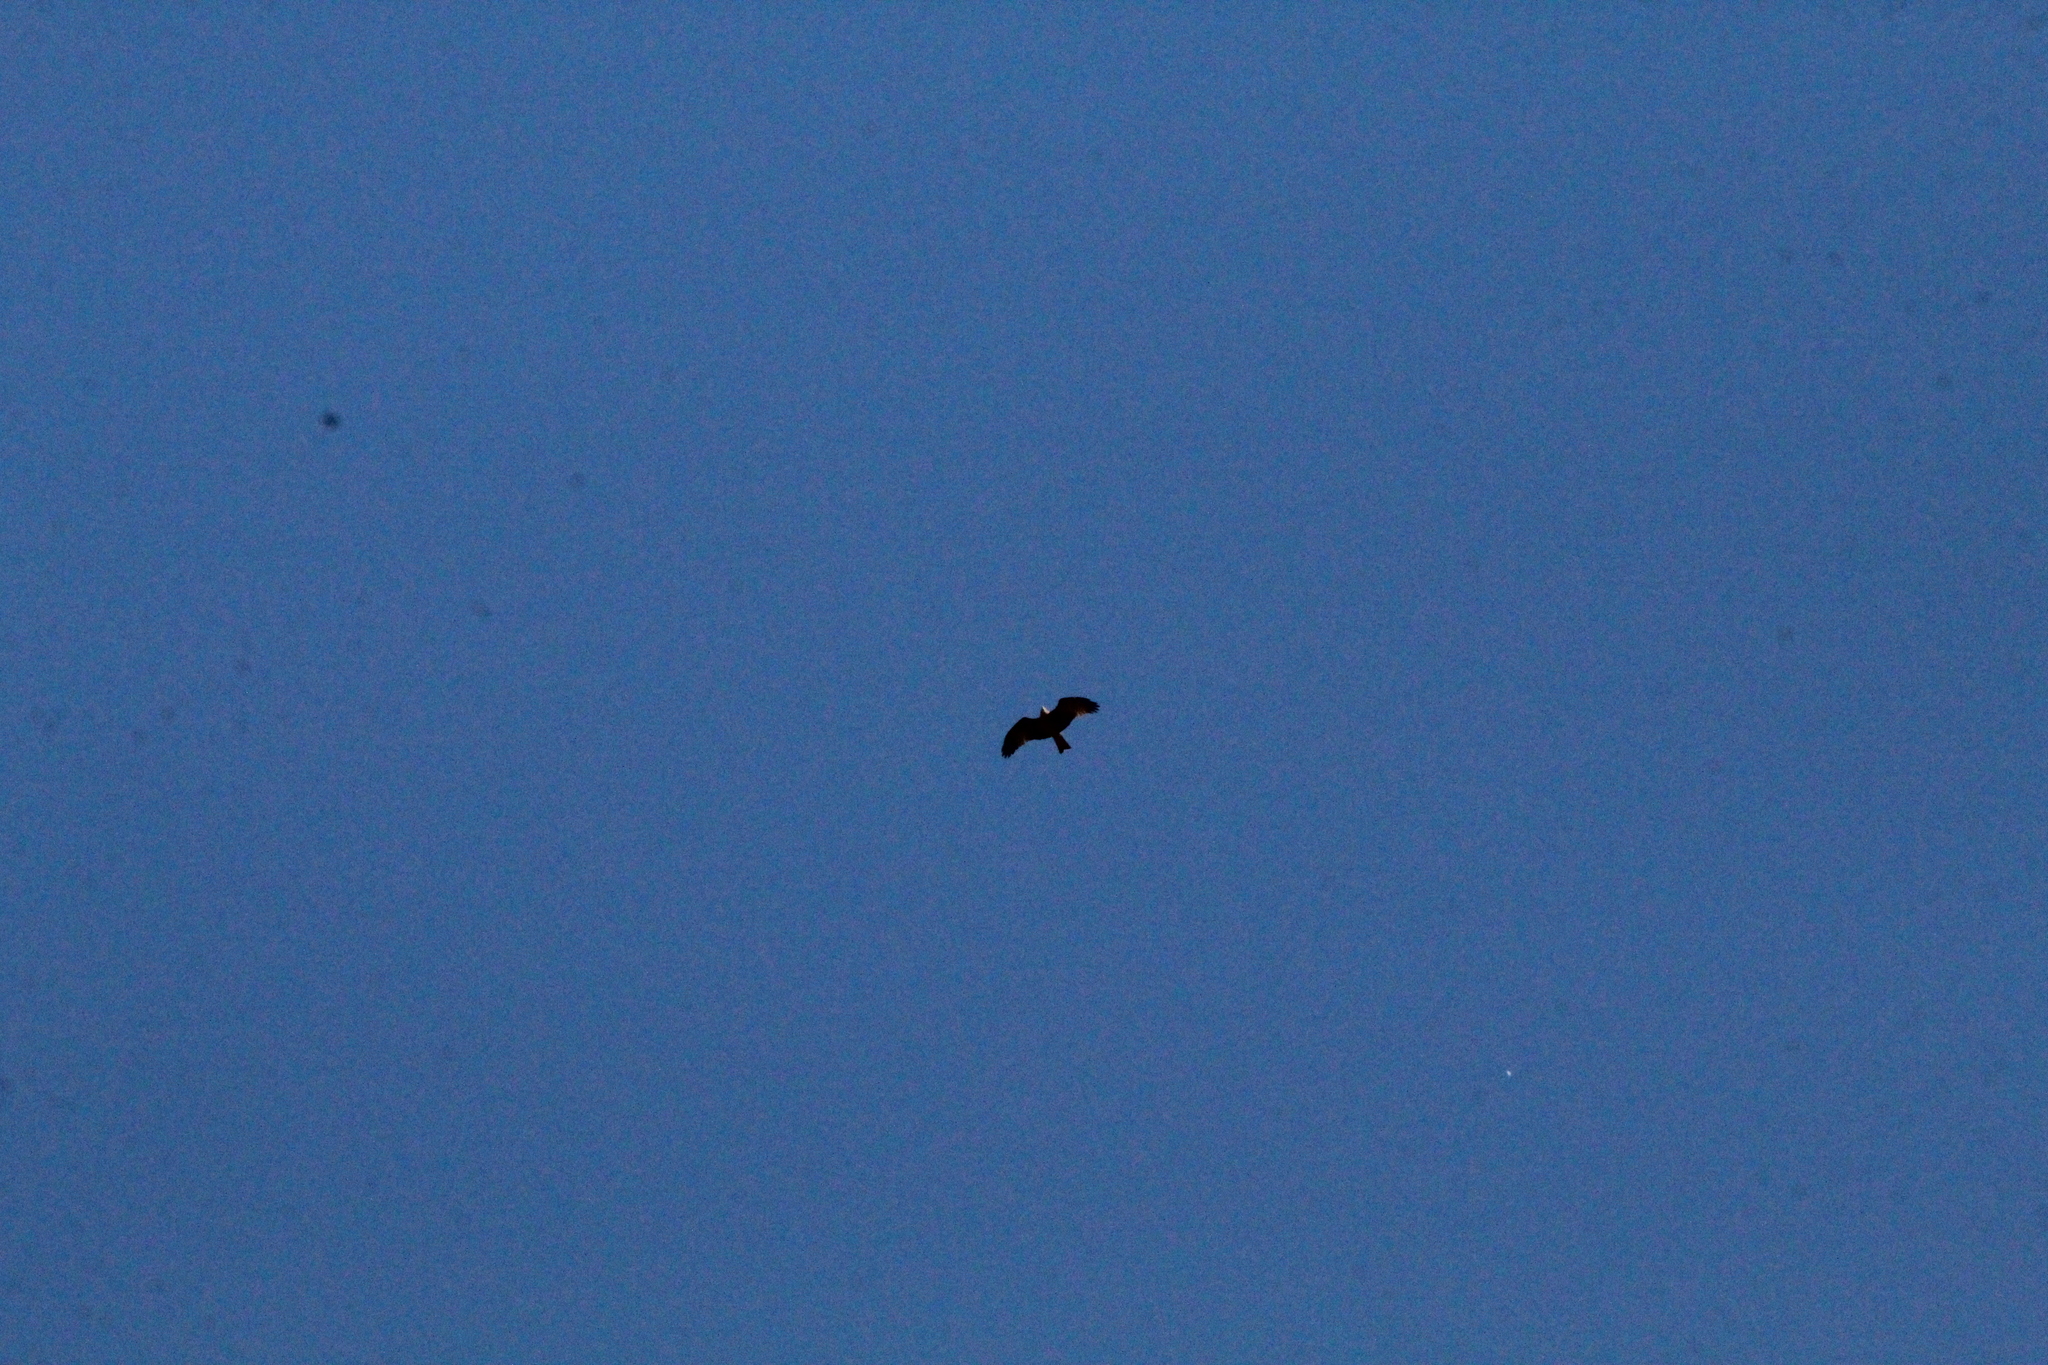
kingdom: Animalia
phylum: Chordata
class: Aves
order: Accipitriformes
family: Accipitridae
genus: Milvus
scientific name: Milvus migrans
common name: Black kite
